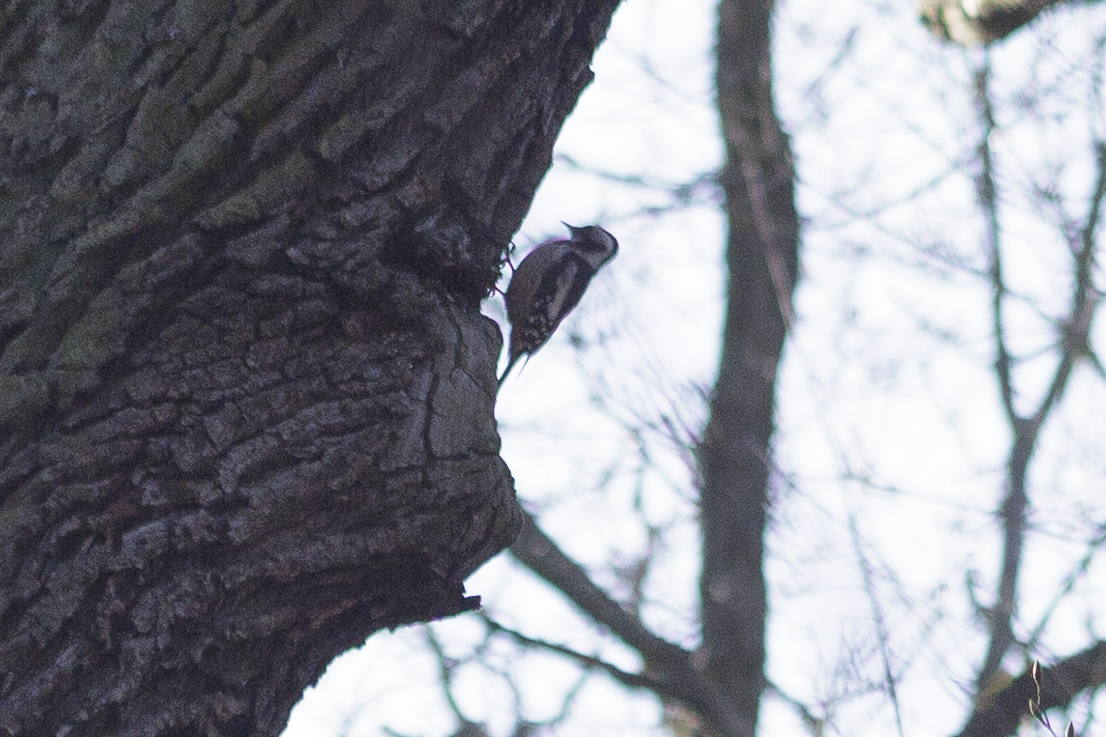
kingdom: Animalia
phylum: Chordata
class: Aves
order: Piciformes
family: Picidae
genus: Dendrocoptes
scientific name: Dendrocoptes medius
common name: Middle spotted woodpecker
